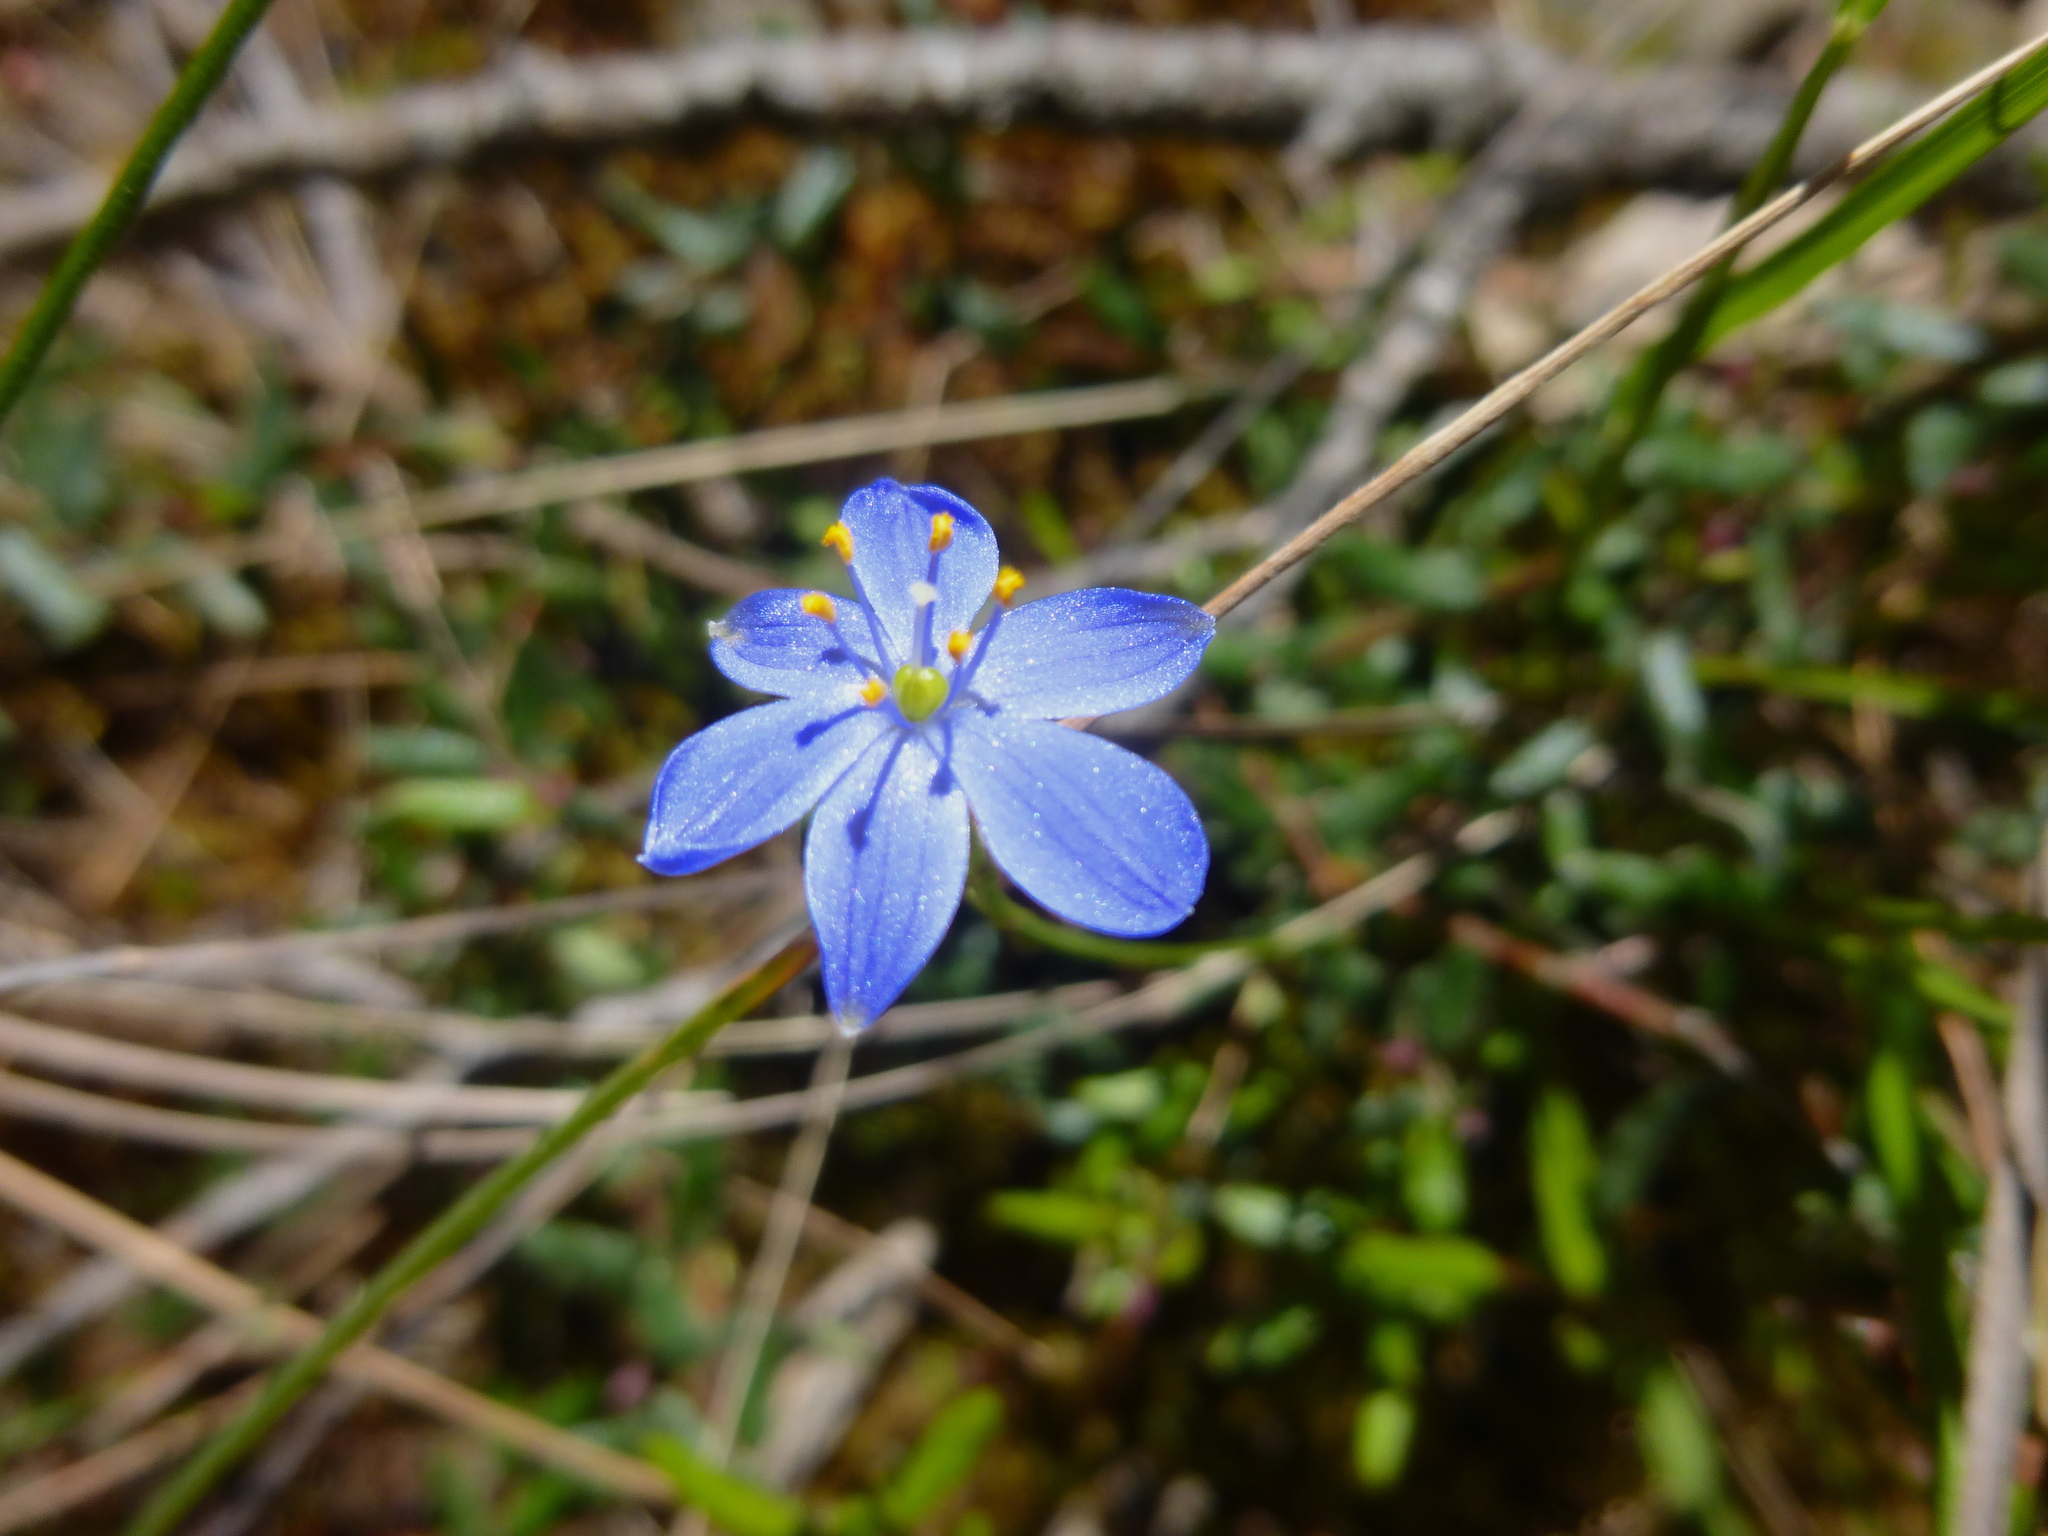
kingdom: Plantae
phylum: Tracheophyta
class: Liliopsida
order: Asparagales
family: Asphodelaceae
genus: Chamaescilla
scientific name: Chamaescilla corymbosa
